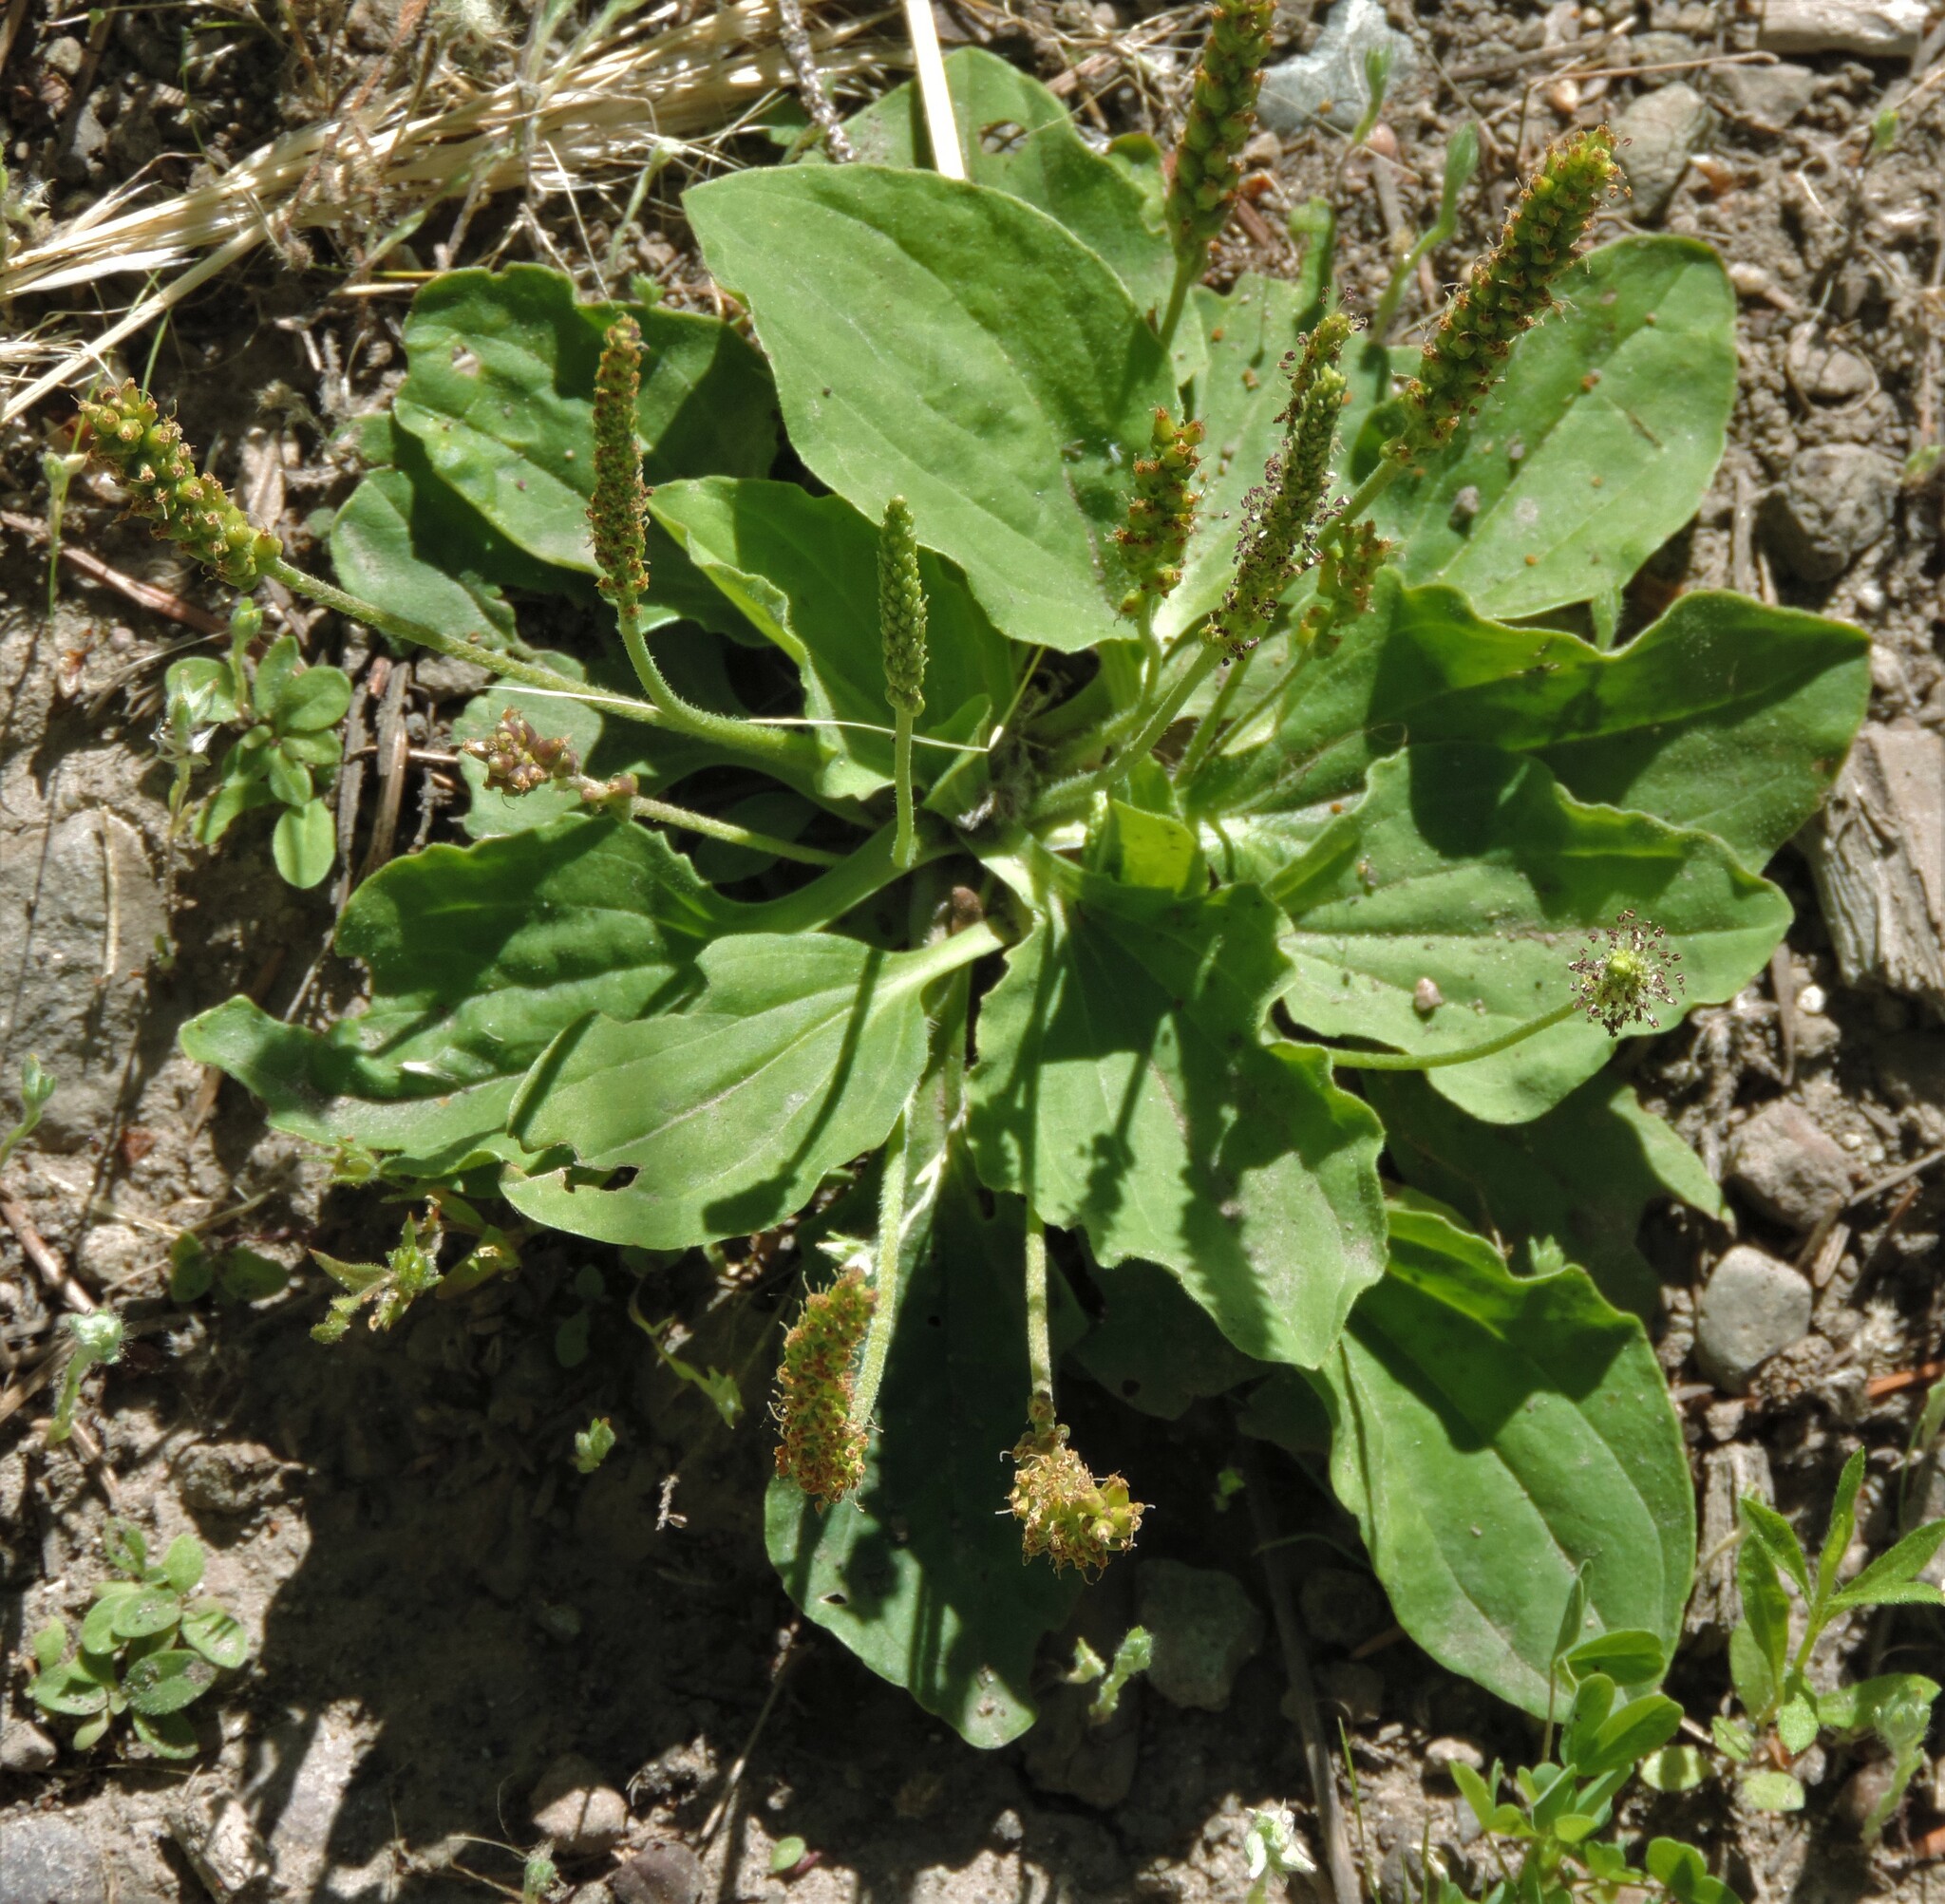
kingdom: Plantae
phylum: Tracheophyta
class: Magnoliopsida
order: Lamiales
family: Plantaginaceae
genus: Plantago
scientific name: Plantago major
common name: Common plantain
